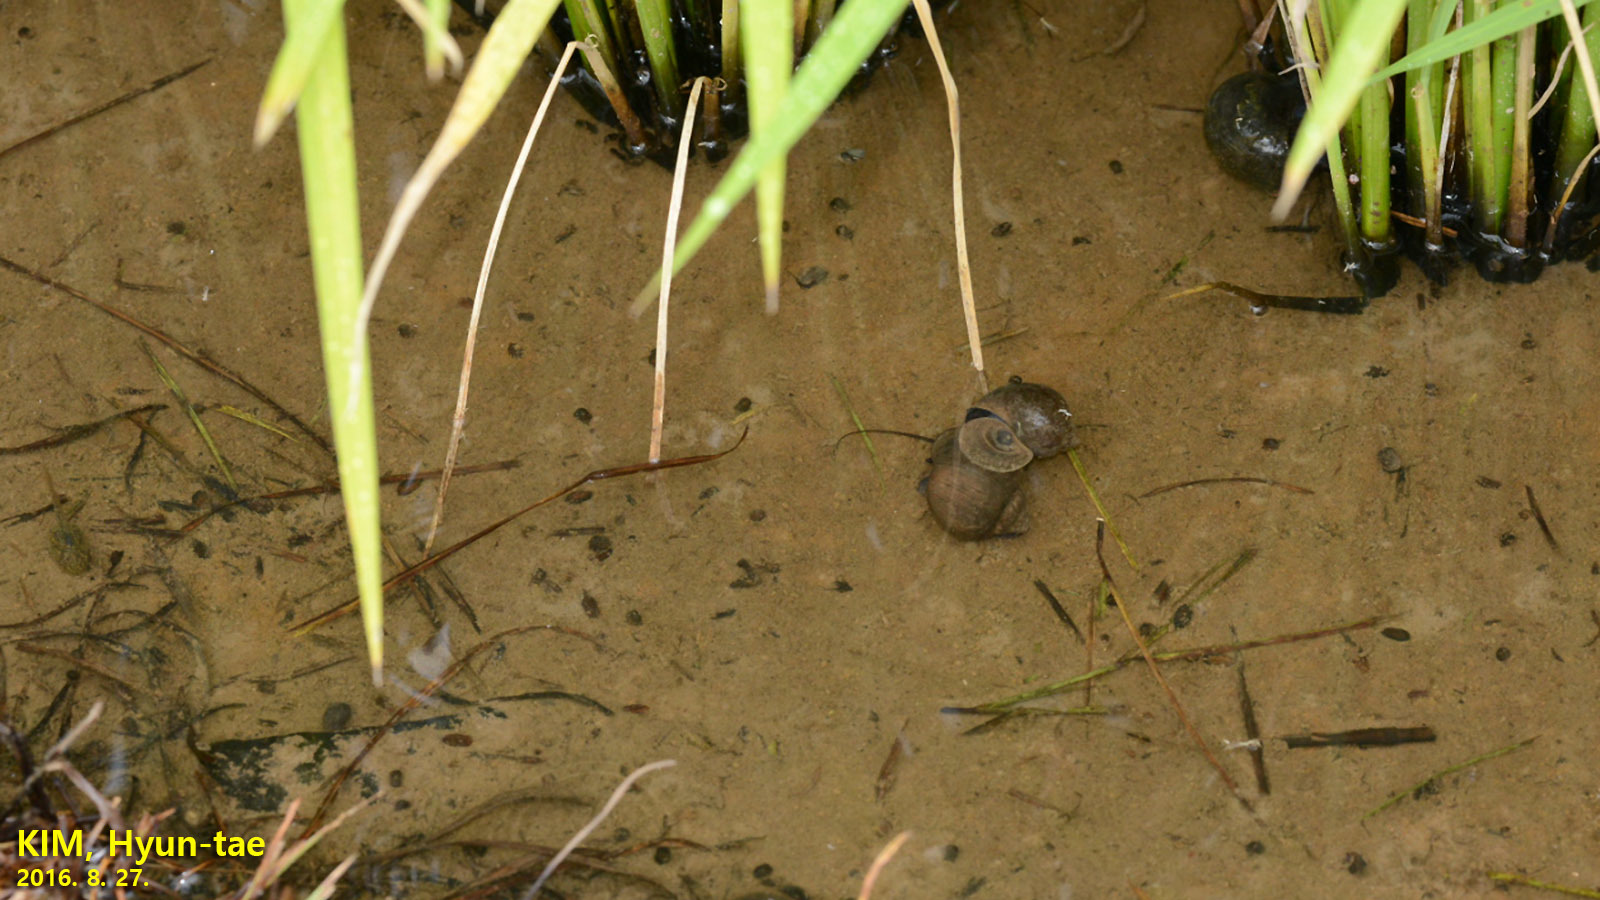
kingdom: Animalia
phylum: Mollusca
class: Gastropoda
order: Architaenioglossa
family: Ampullariidae
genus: Pomacea
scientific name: Pomacea canaliculata
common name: Channeled applesnail
